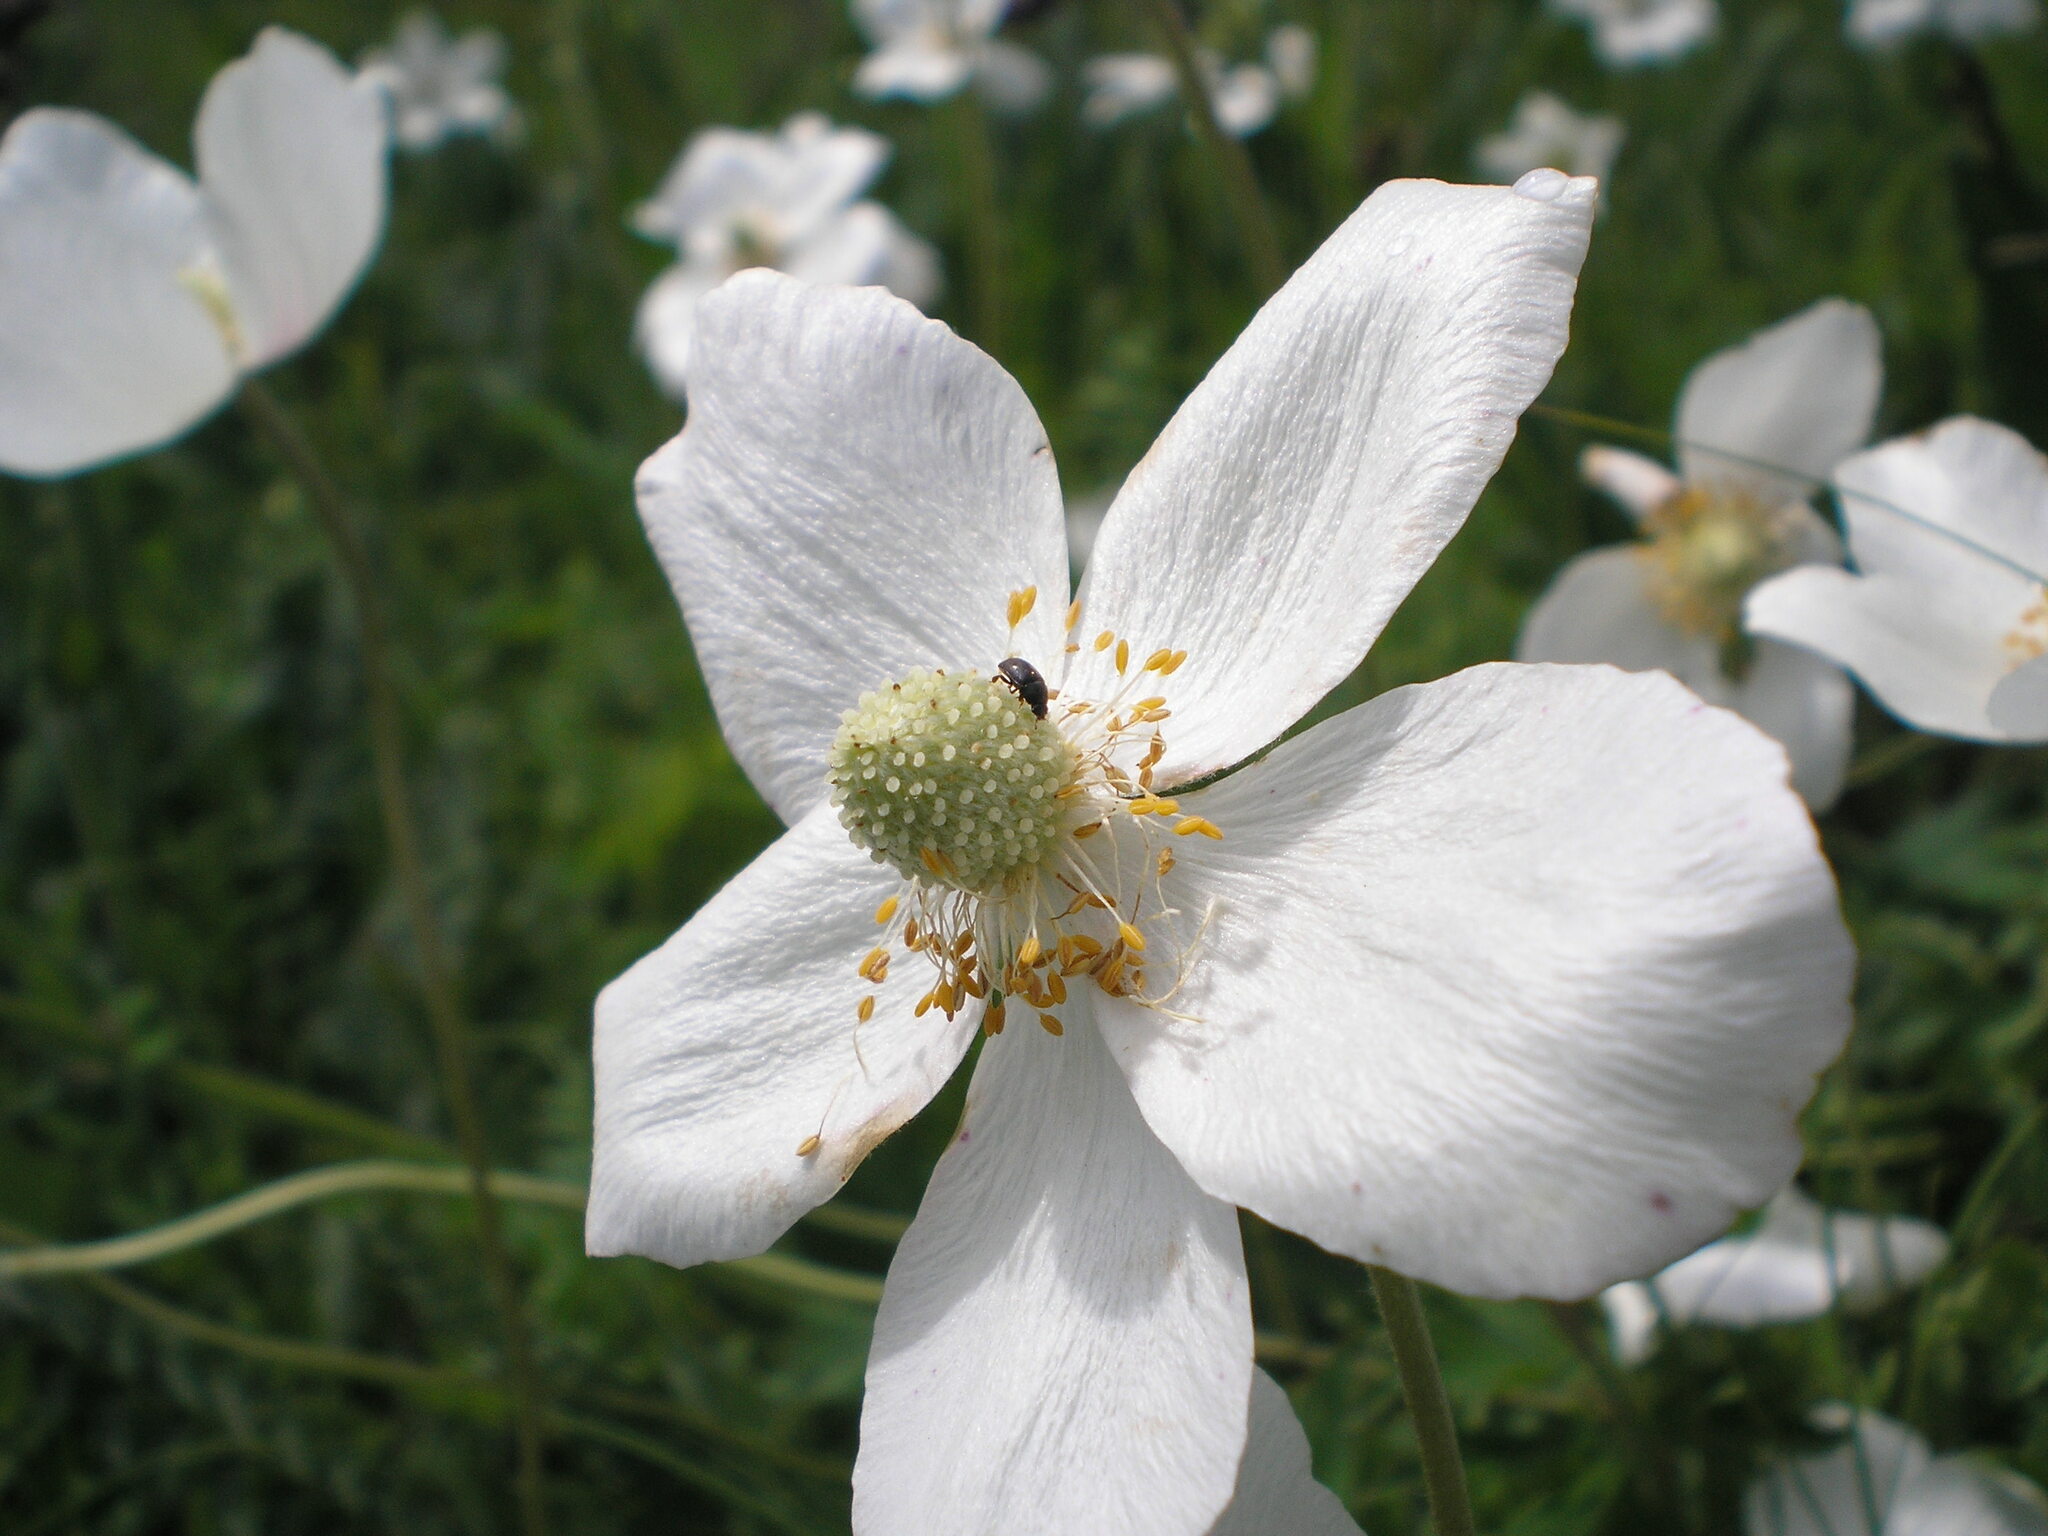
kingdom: Plantae
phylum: Tracheophyta
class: Magnoliopsida
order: Ranunculales
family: Ranunculaceae
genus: Anemone
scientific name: Anemone sylvestris
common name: Snowdrop anemone
